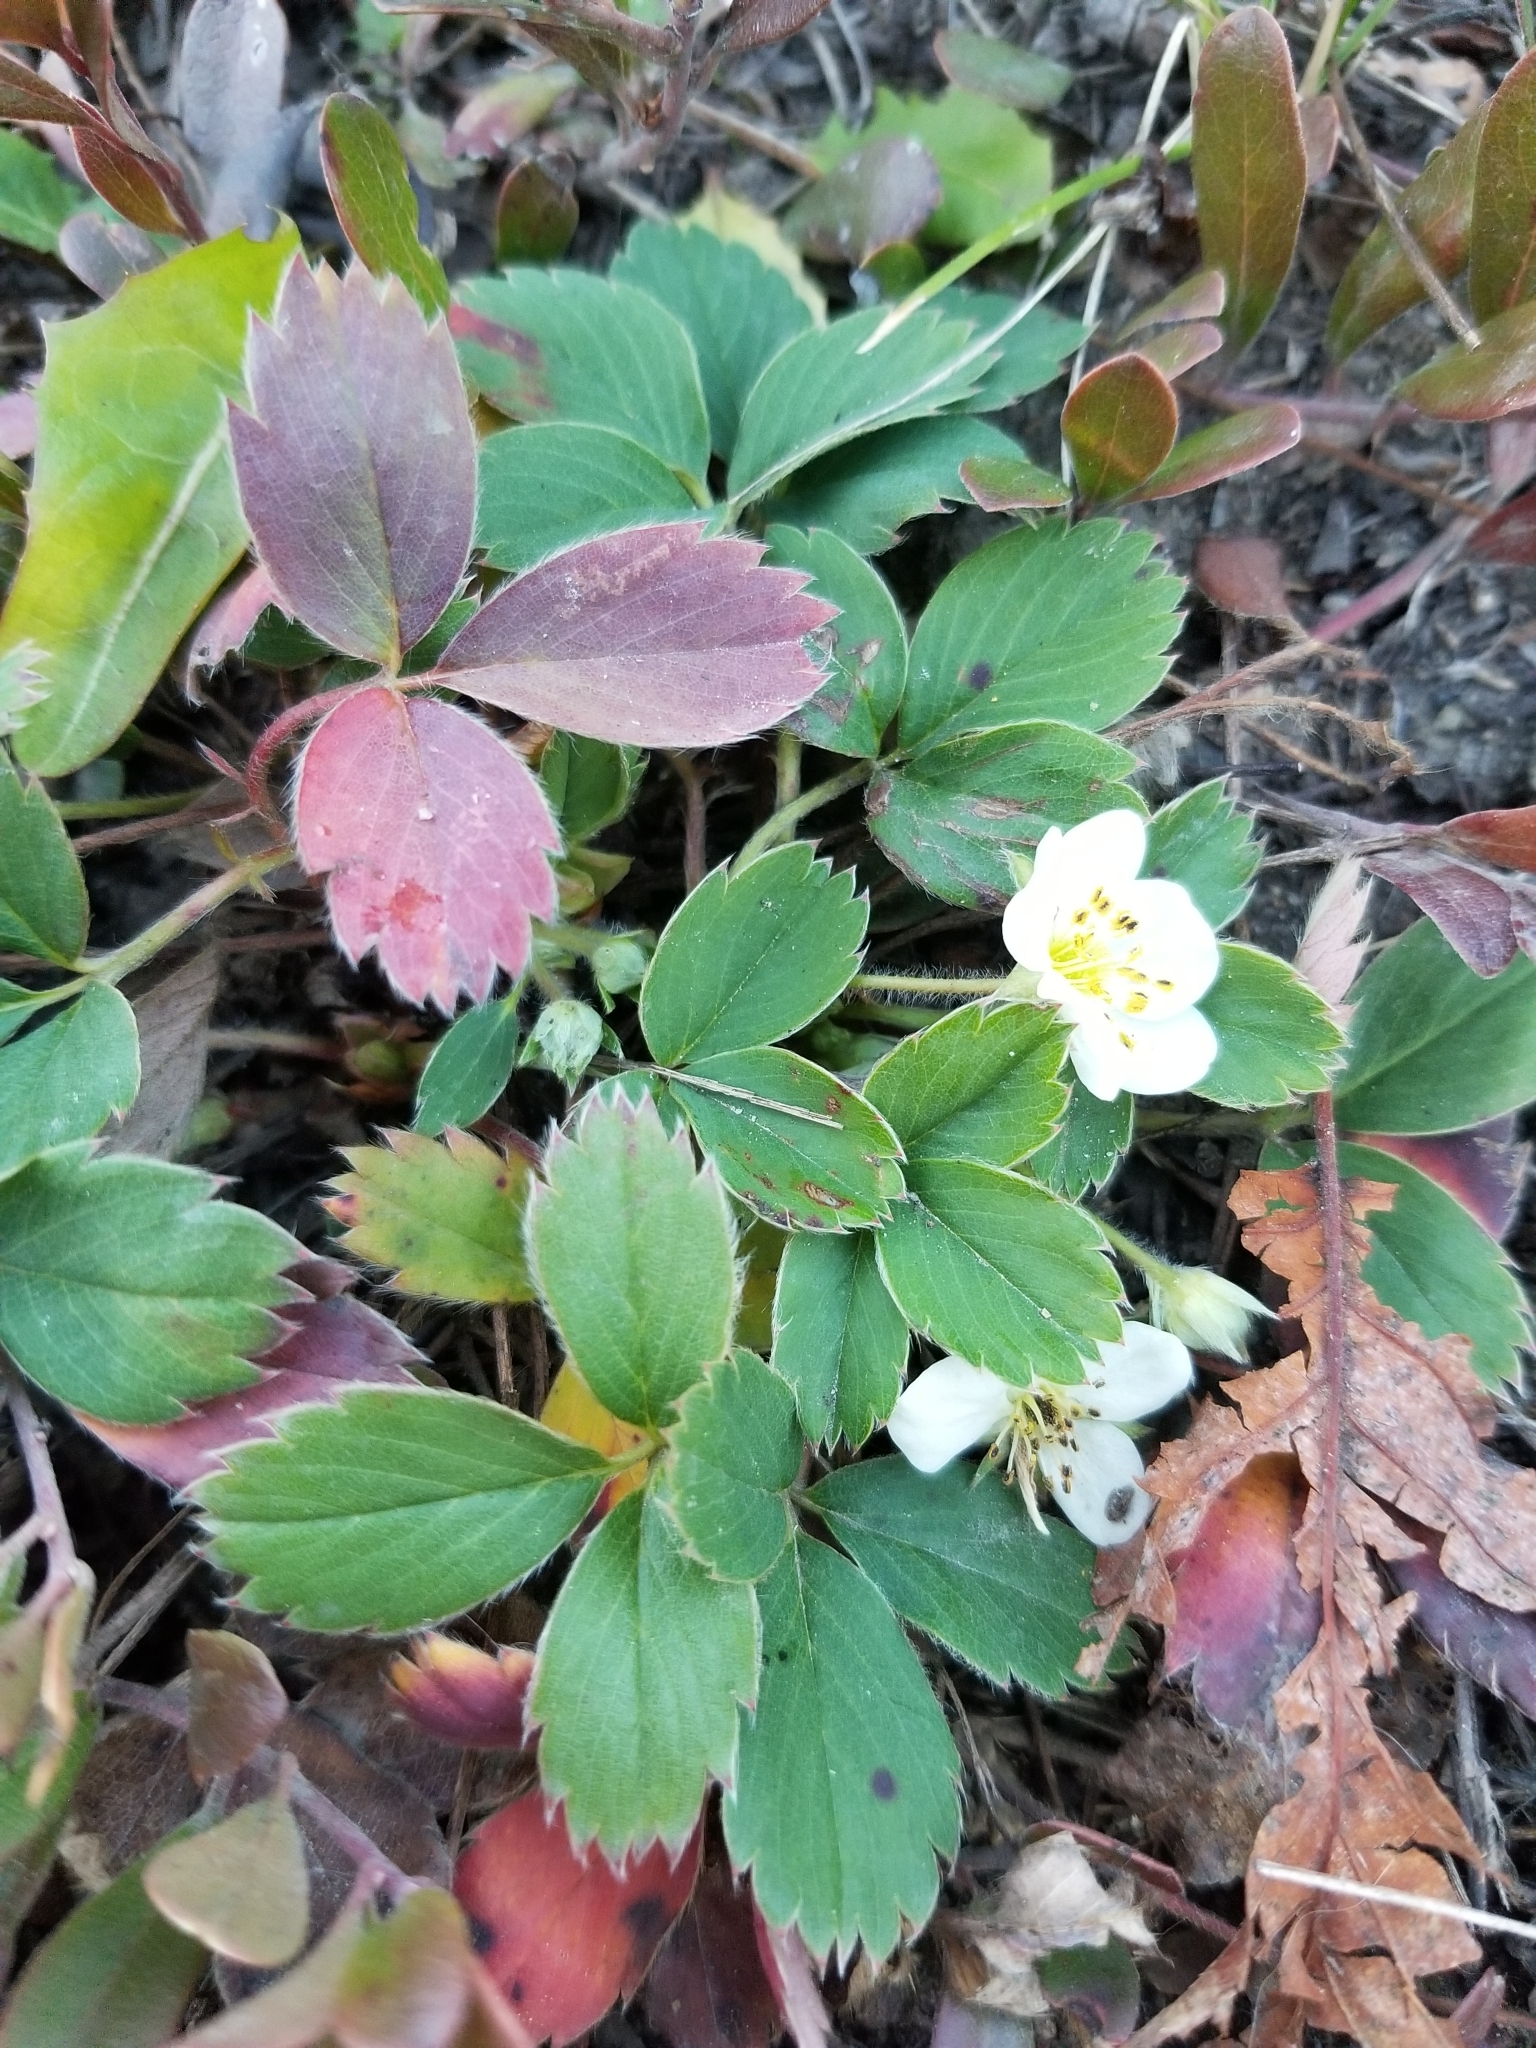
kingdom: Plantae
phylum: Tracheophyta
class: Magnoliopsida
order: Rosales
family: Rosaceae
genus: Fragaria
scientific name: Fragaria virginiana
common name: Thickleaved wild strawberry
